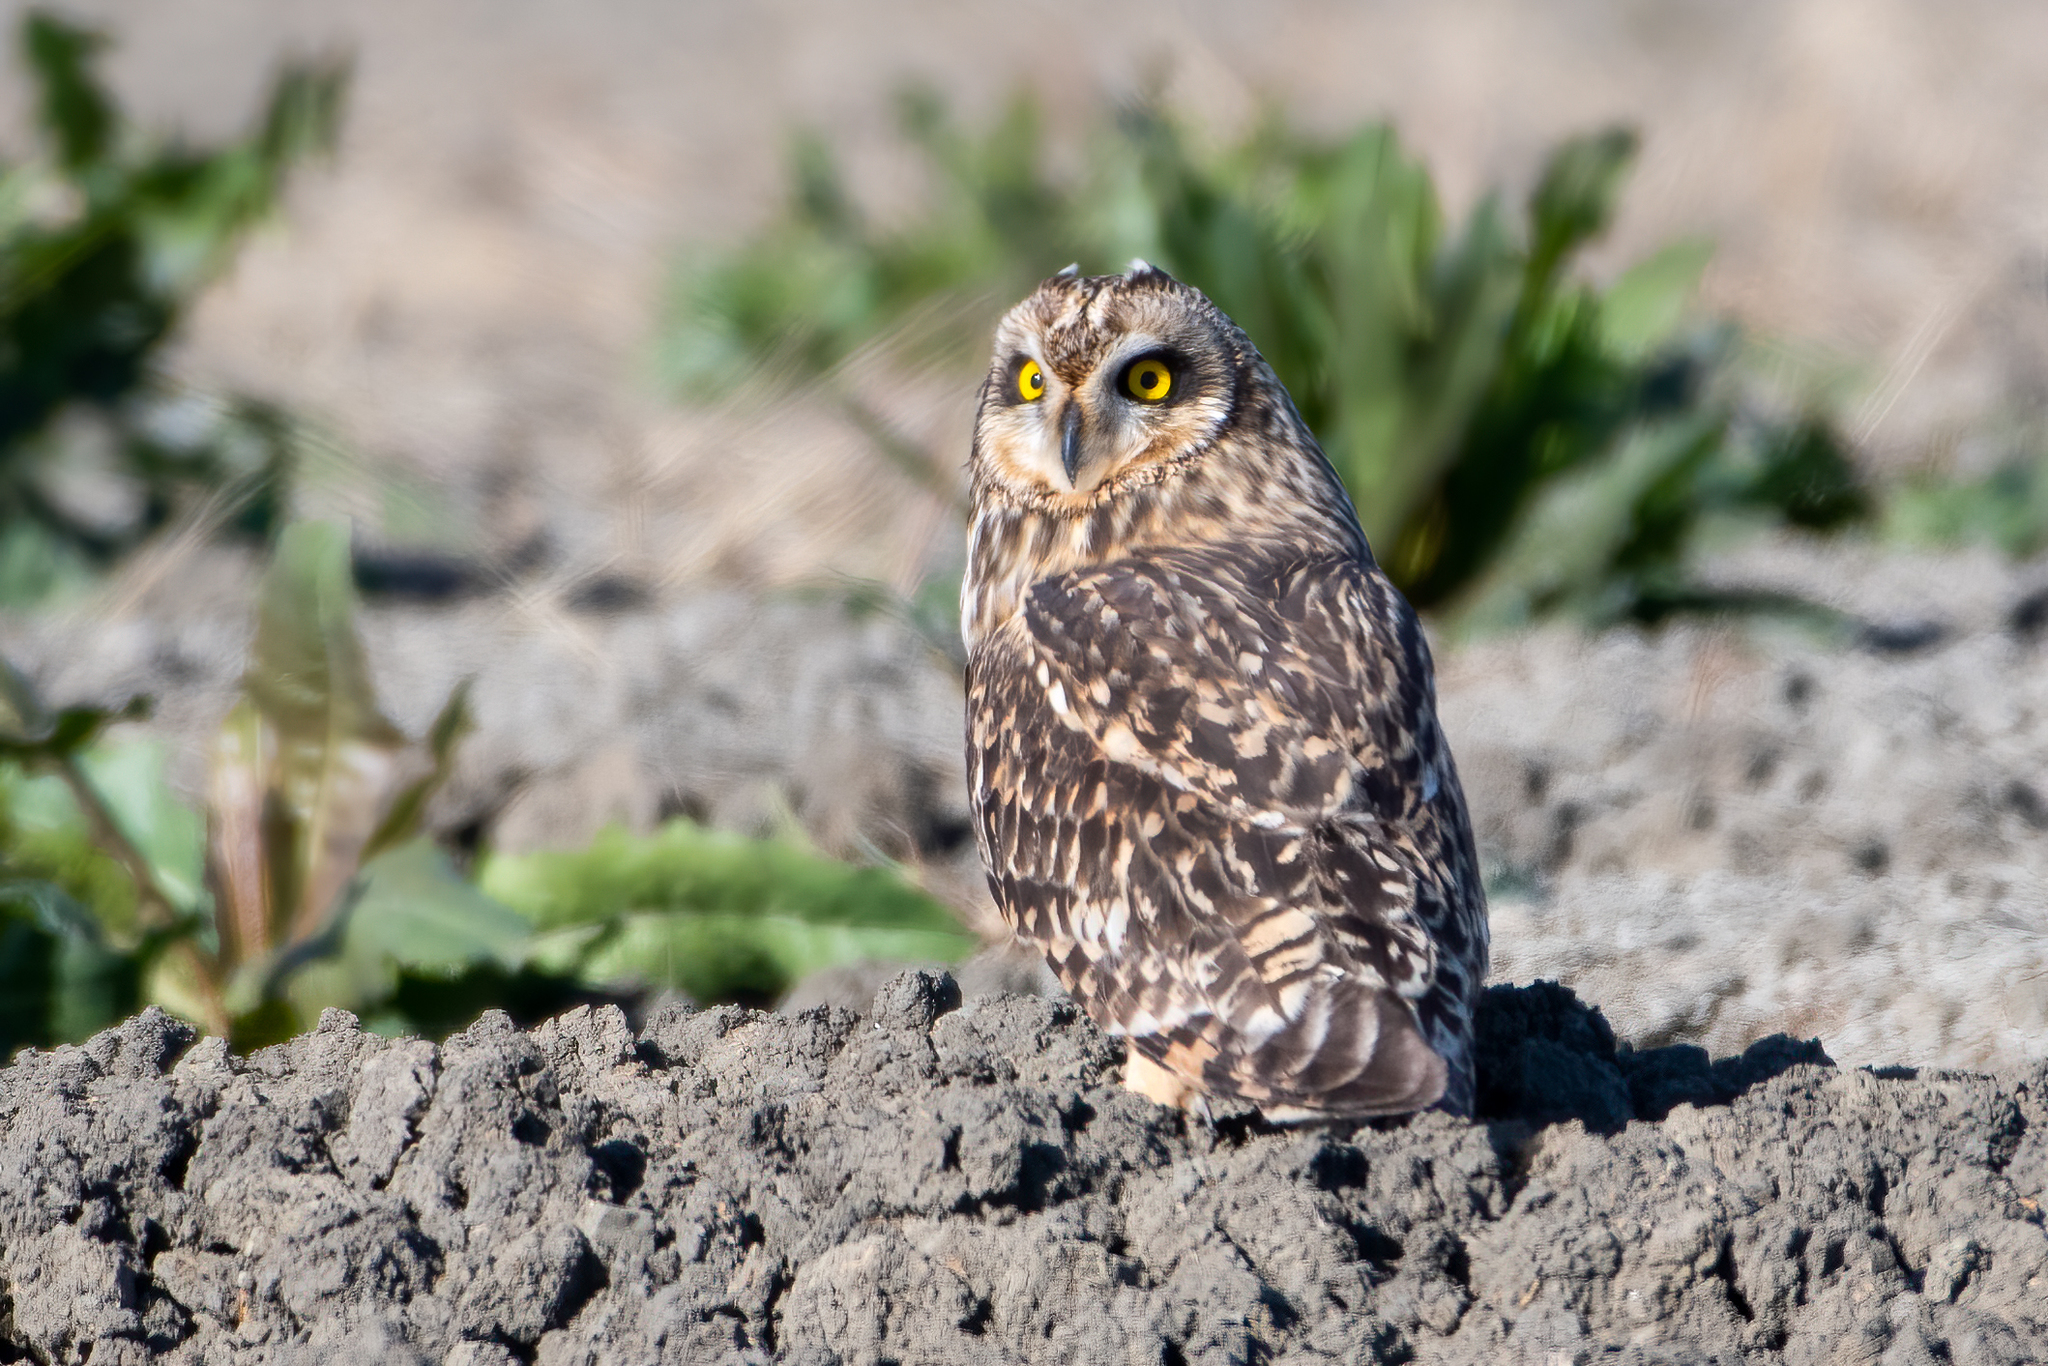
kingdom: Animalia
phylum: Chordata
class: Aves
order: Strigiformes
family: Strigidae
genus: Asio
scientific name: Asio flammeus
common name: Short-eared owl
